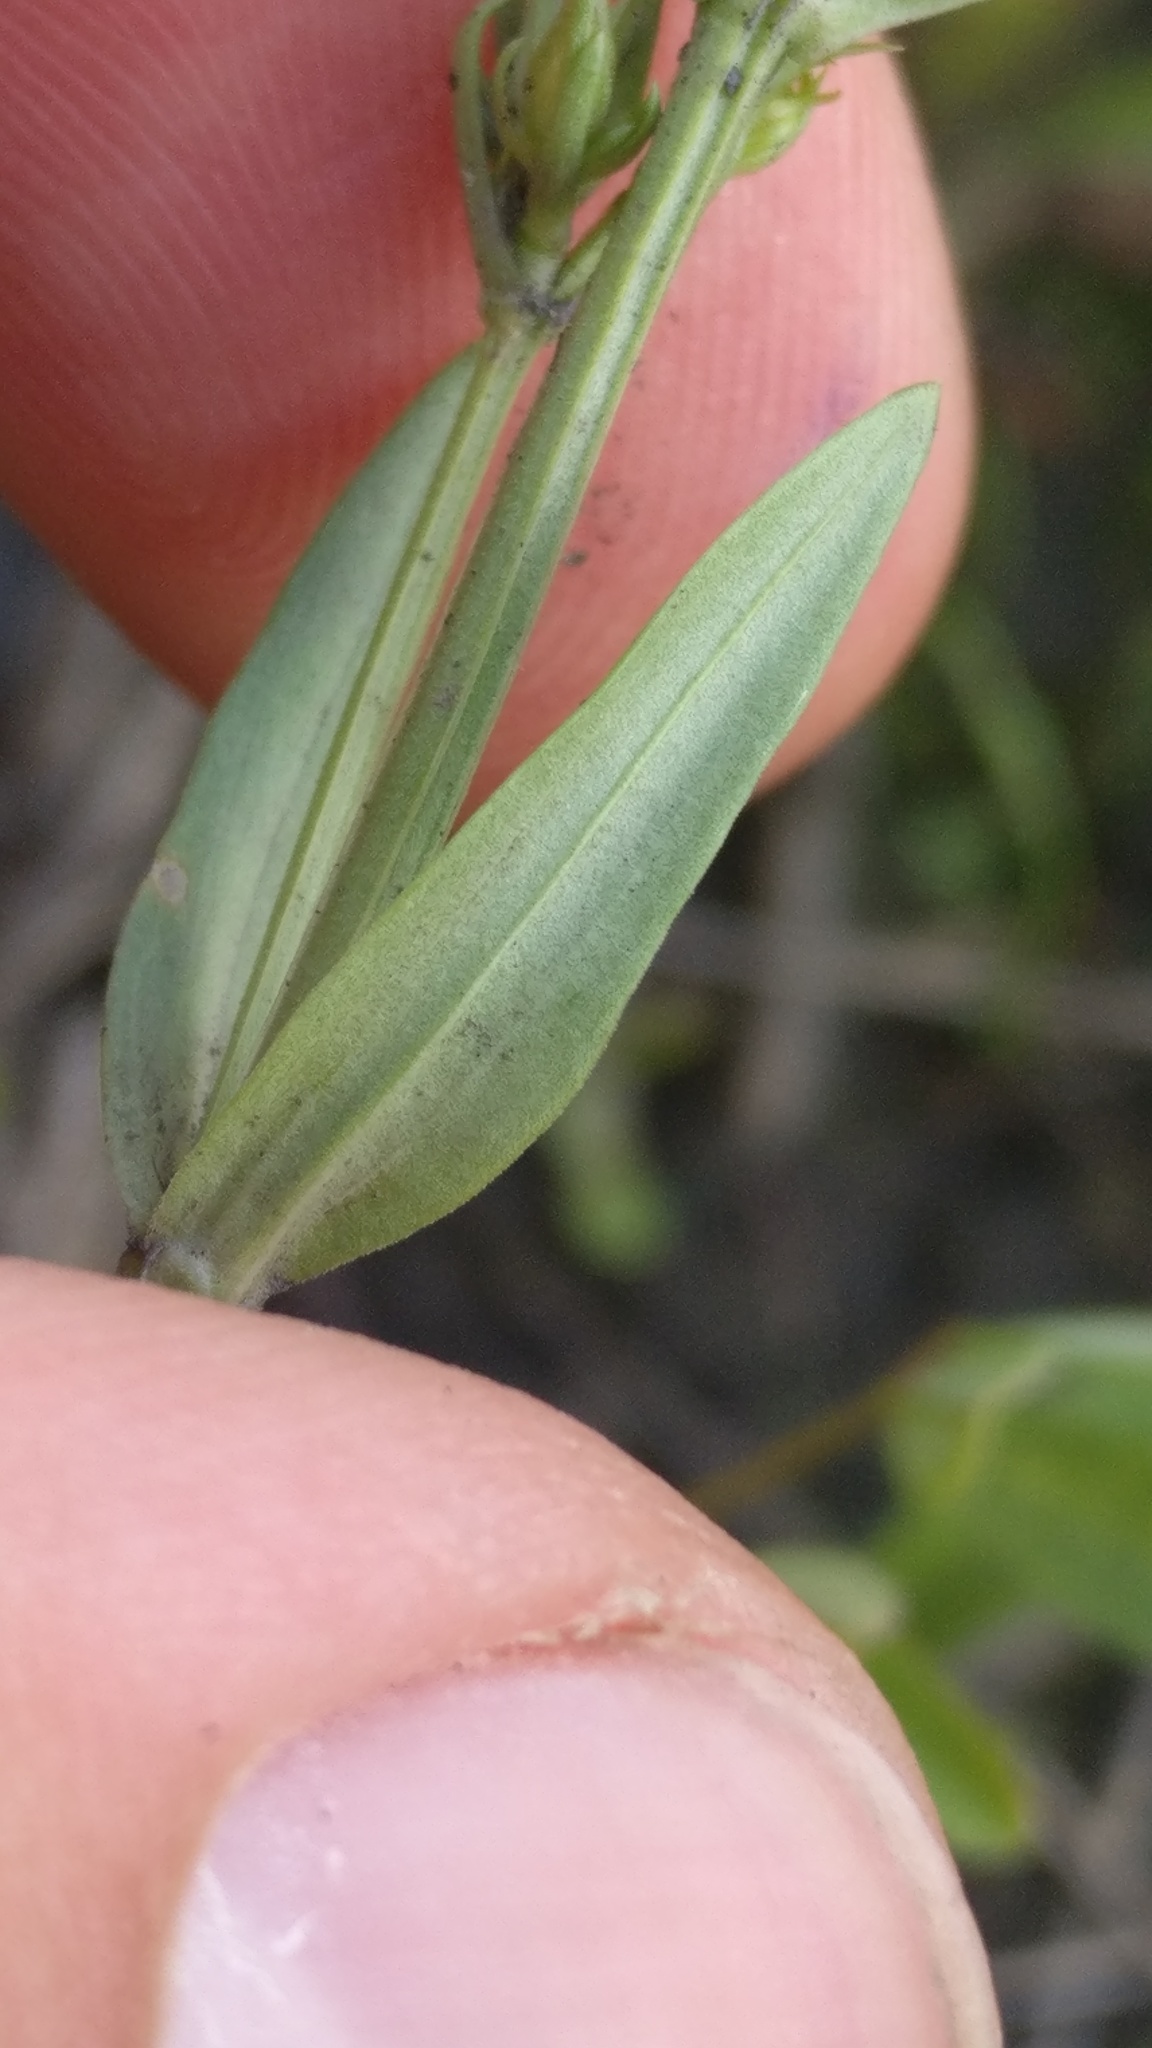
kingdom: Plantae
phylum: Tracheophyta
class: Magnoliopsida
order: Gentianales
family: Gentianaceae
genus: Centaurium
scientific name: Centaurium erythraea
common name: Common centaury
